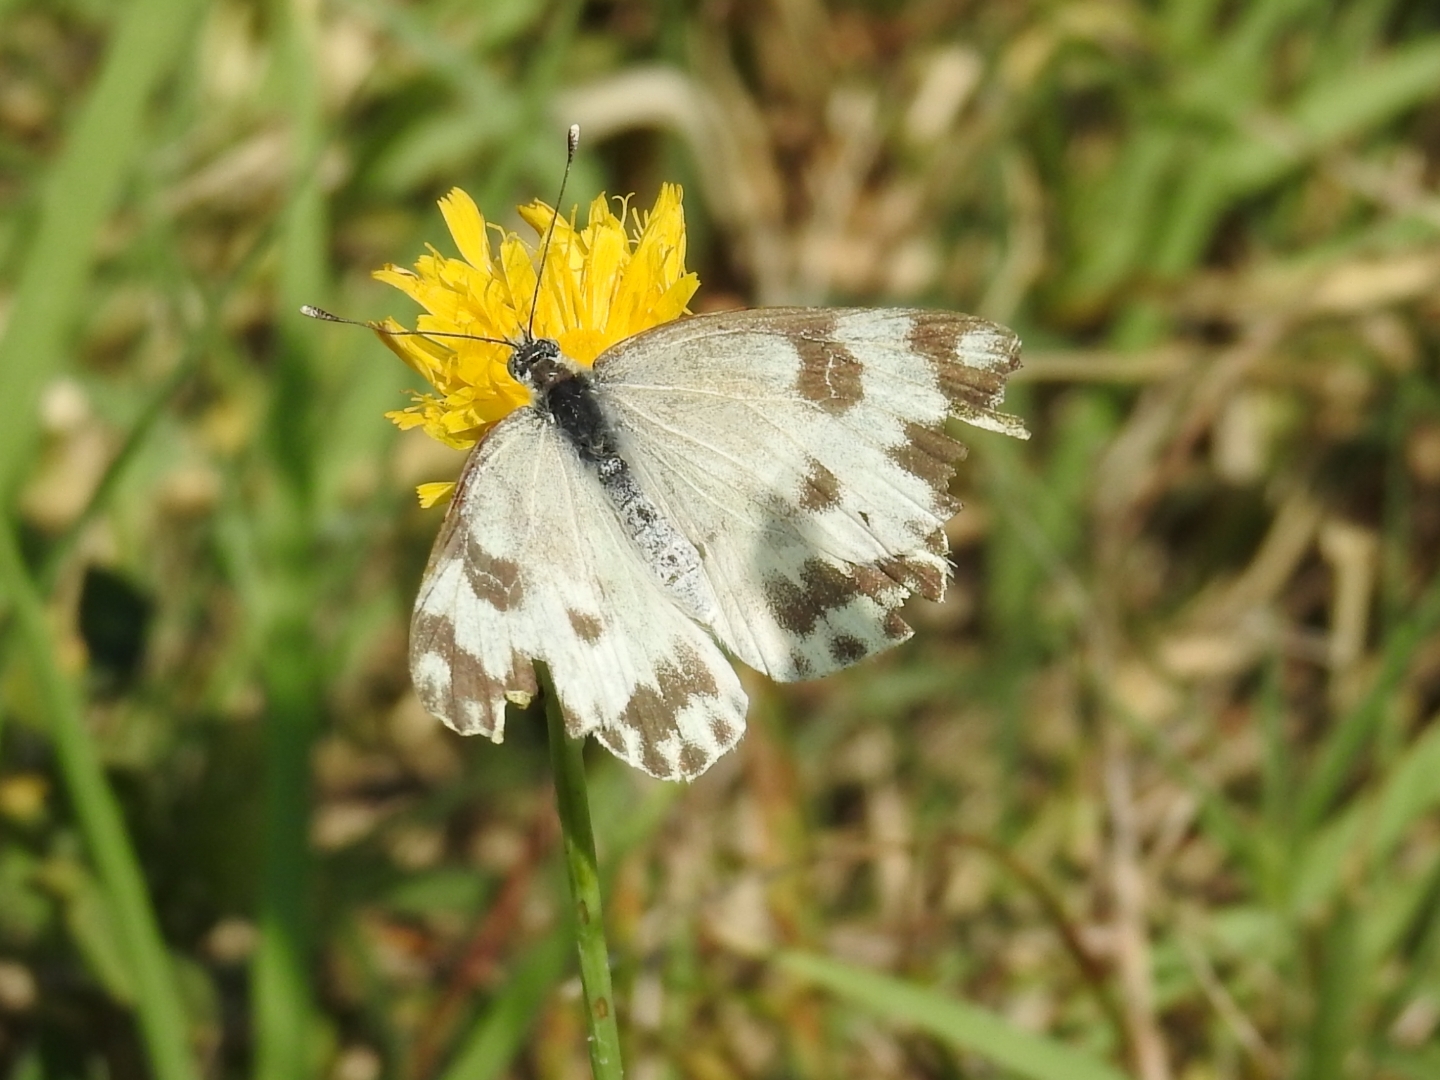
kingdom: Animalia
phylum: Arthropoda
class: Insecta
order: Lepidoptera
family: Pieridae
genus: Pontia
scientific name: Pontia edusa
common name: Eastern bath white
